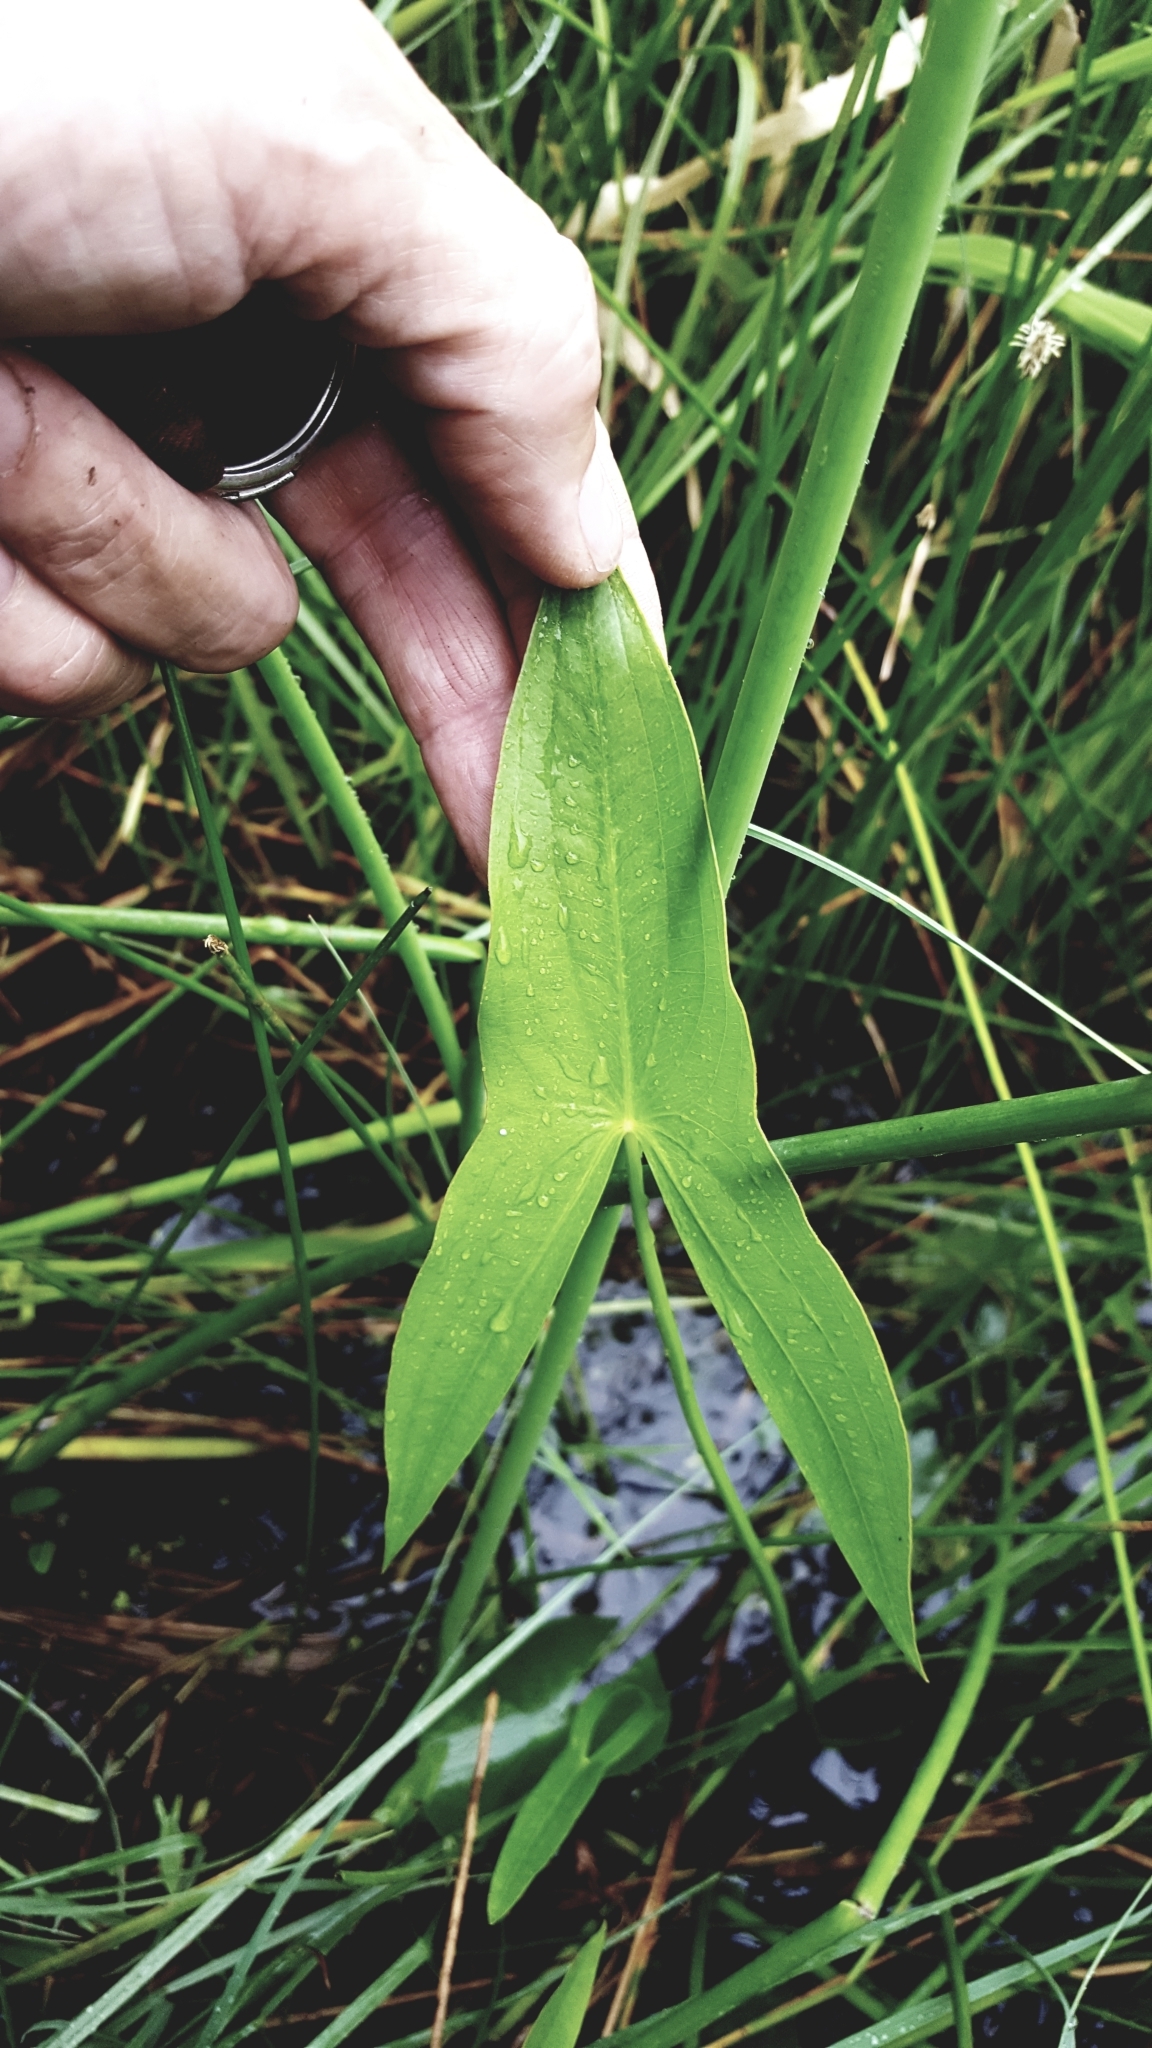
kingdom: Plantae
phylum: Tracheophyta
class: Liliopsida
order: Alismatales
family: Alismataceae
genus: Sagittaria
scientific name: Sagittaria latifolia
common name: Duck-potato
